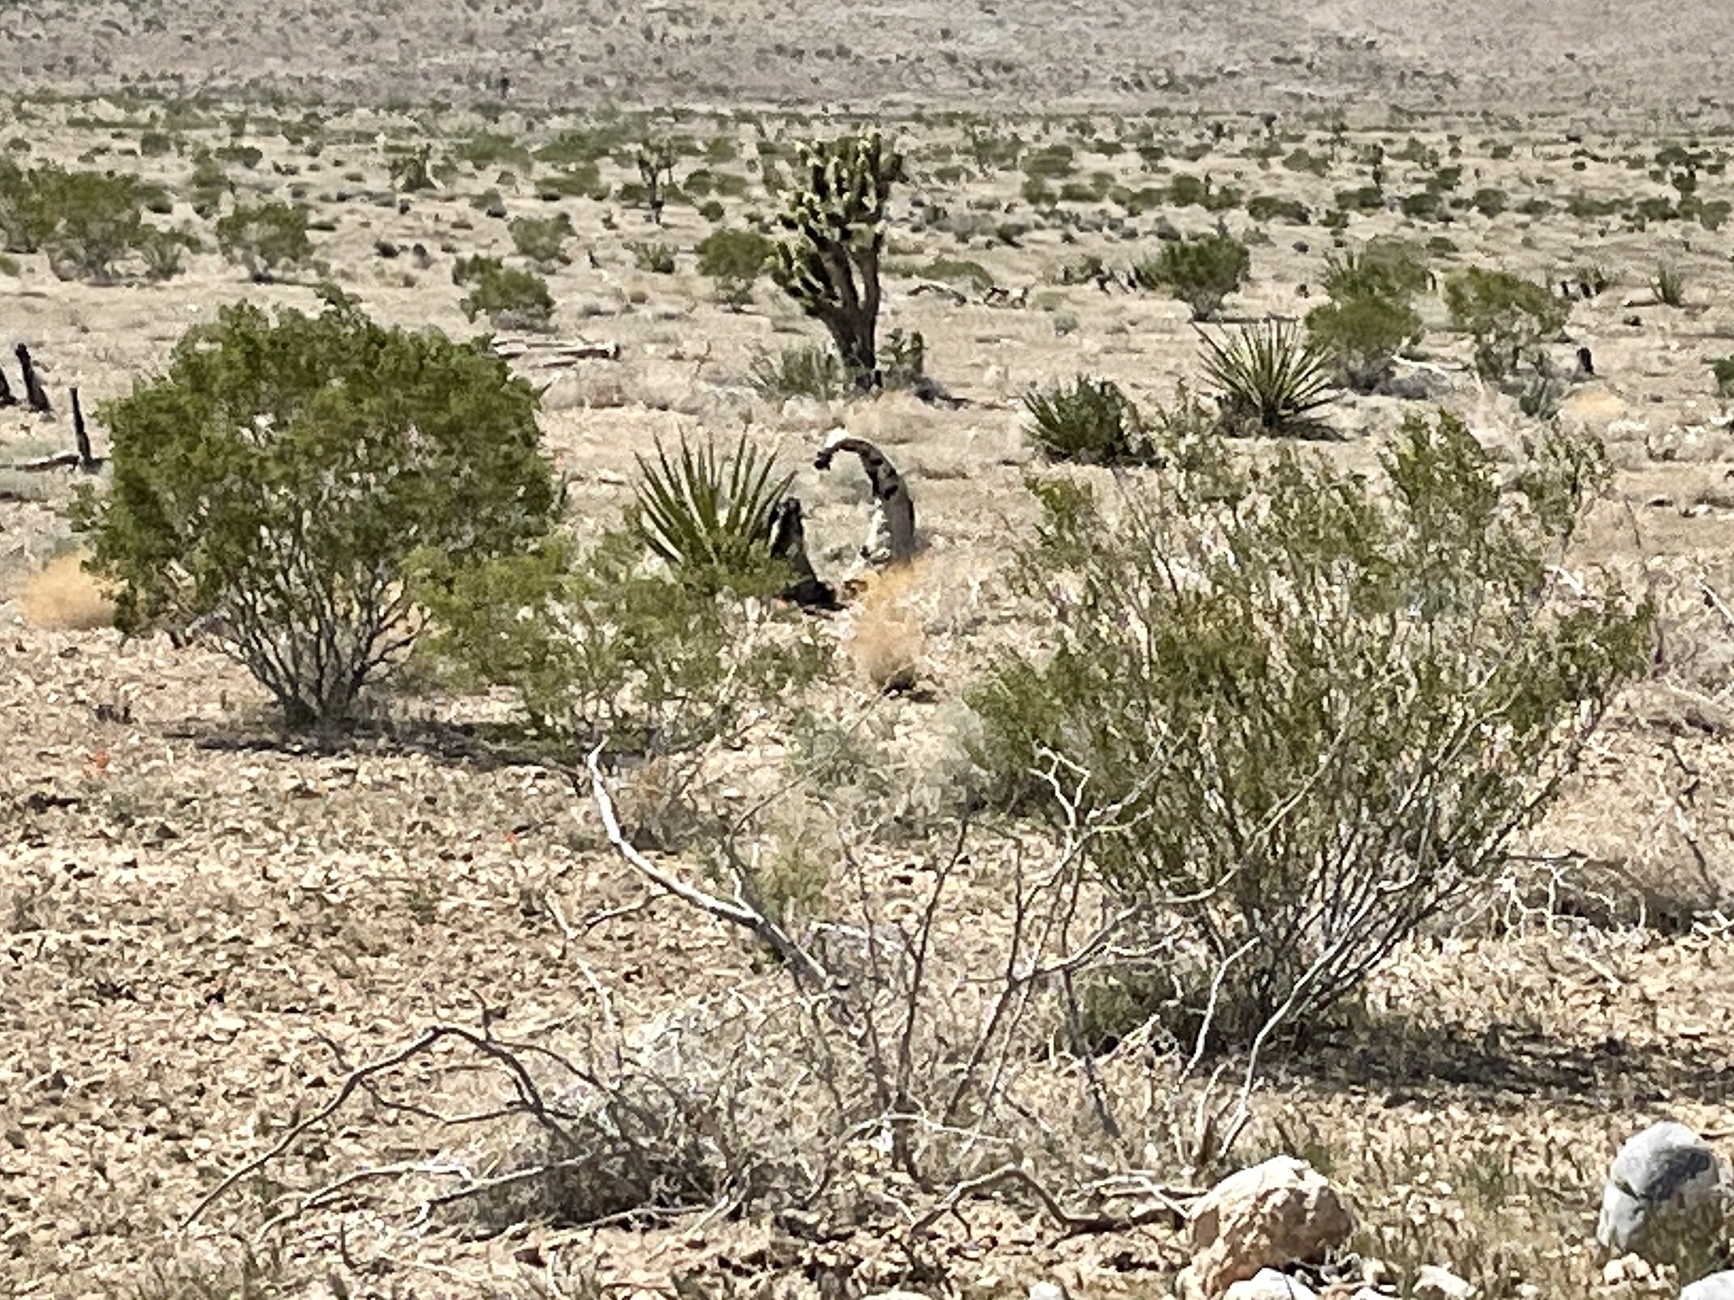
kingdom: Plantae
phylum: Tracheophyta
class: Magnoliopsida
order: Zygophyllales
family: Zygophyllaceae
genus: Larrea
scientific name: Larrea tridentata
